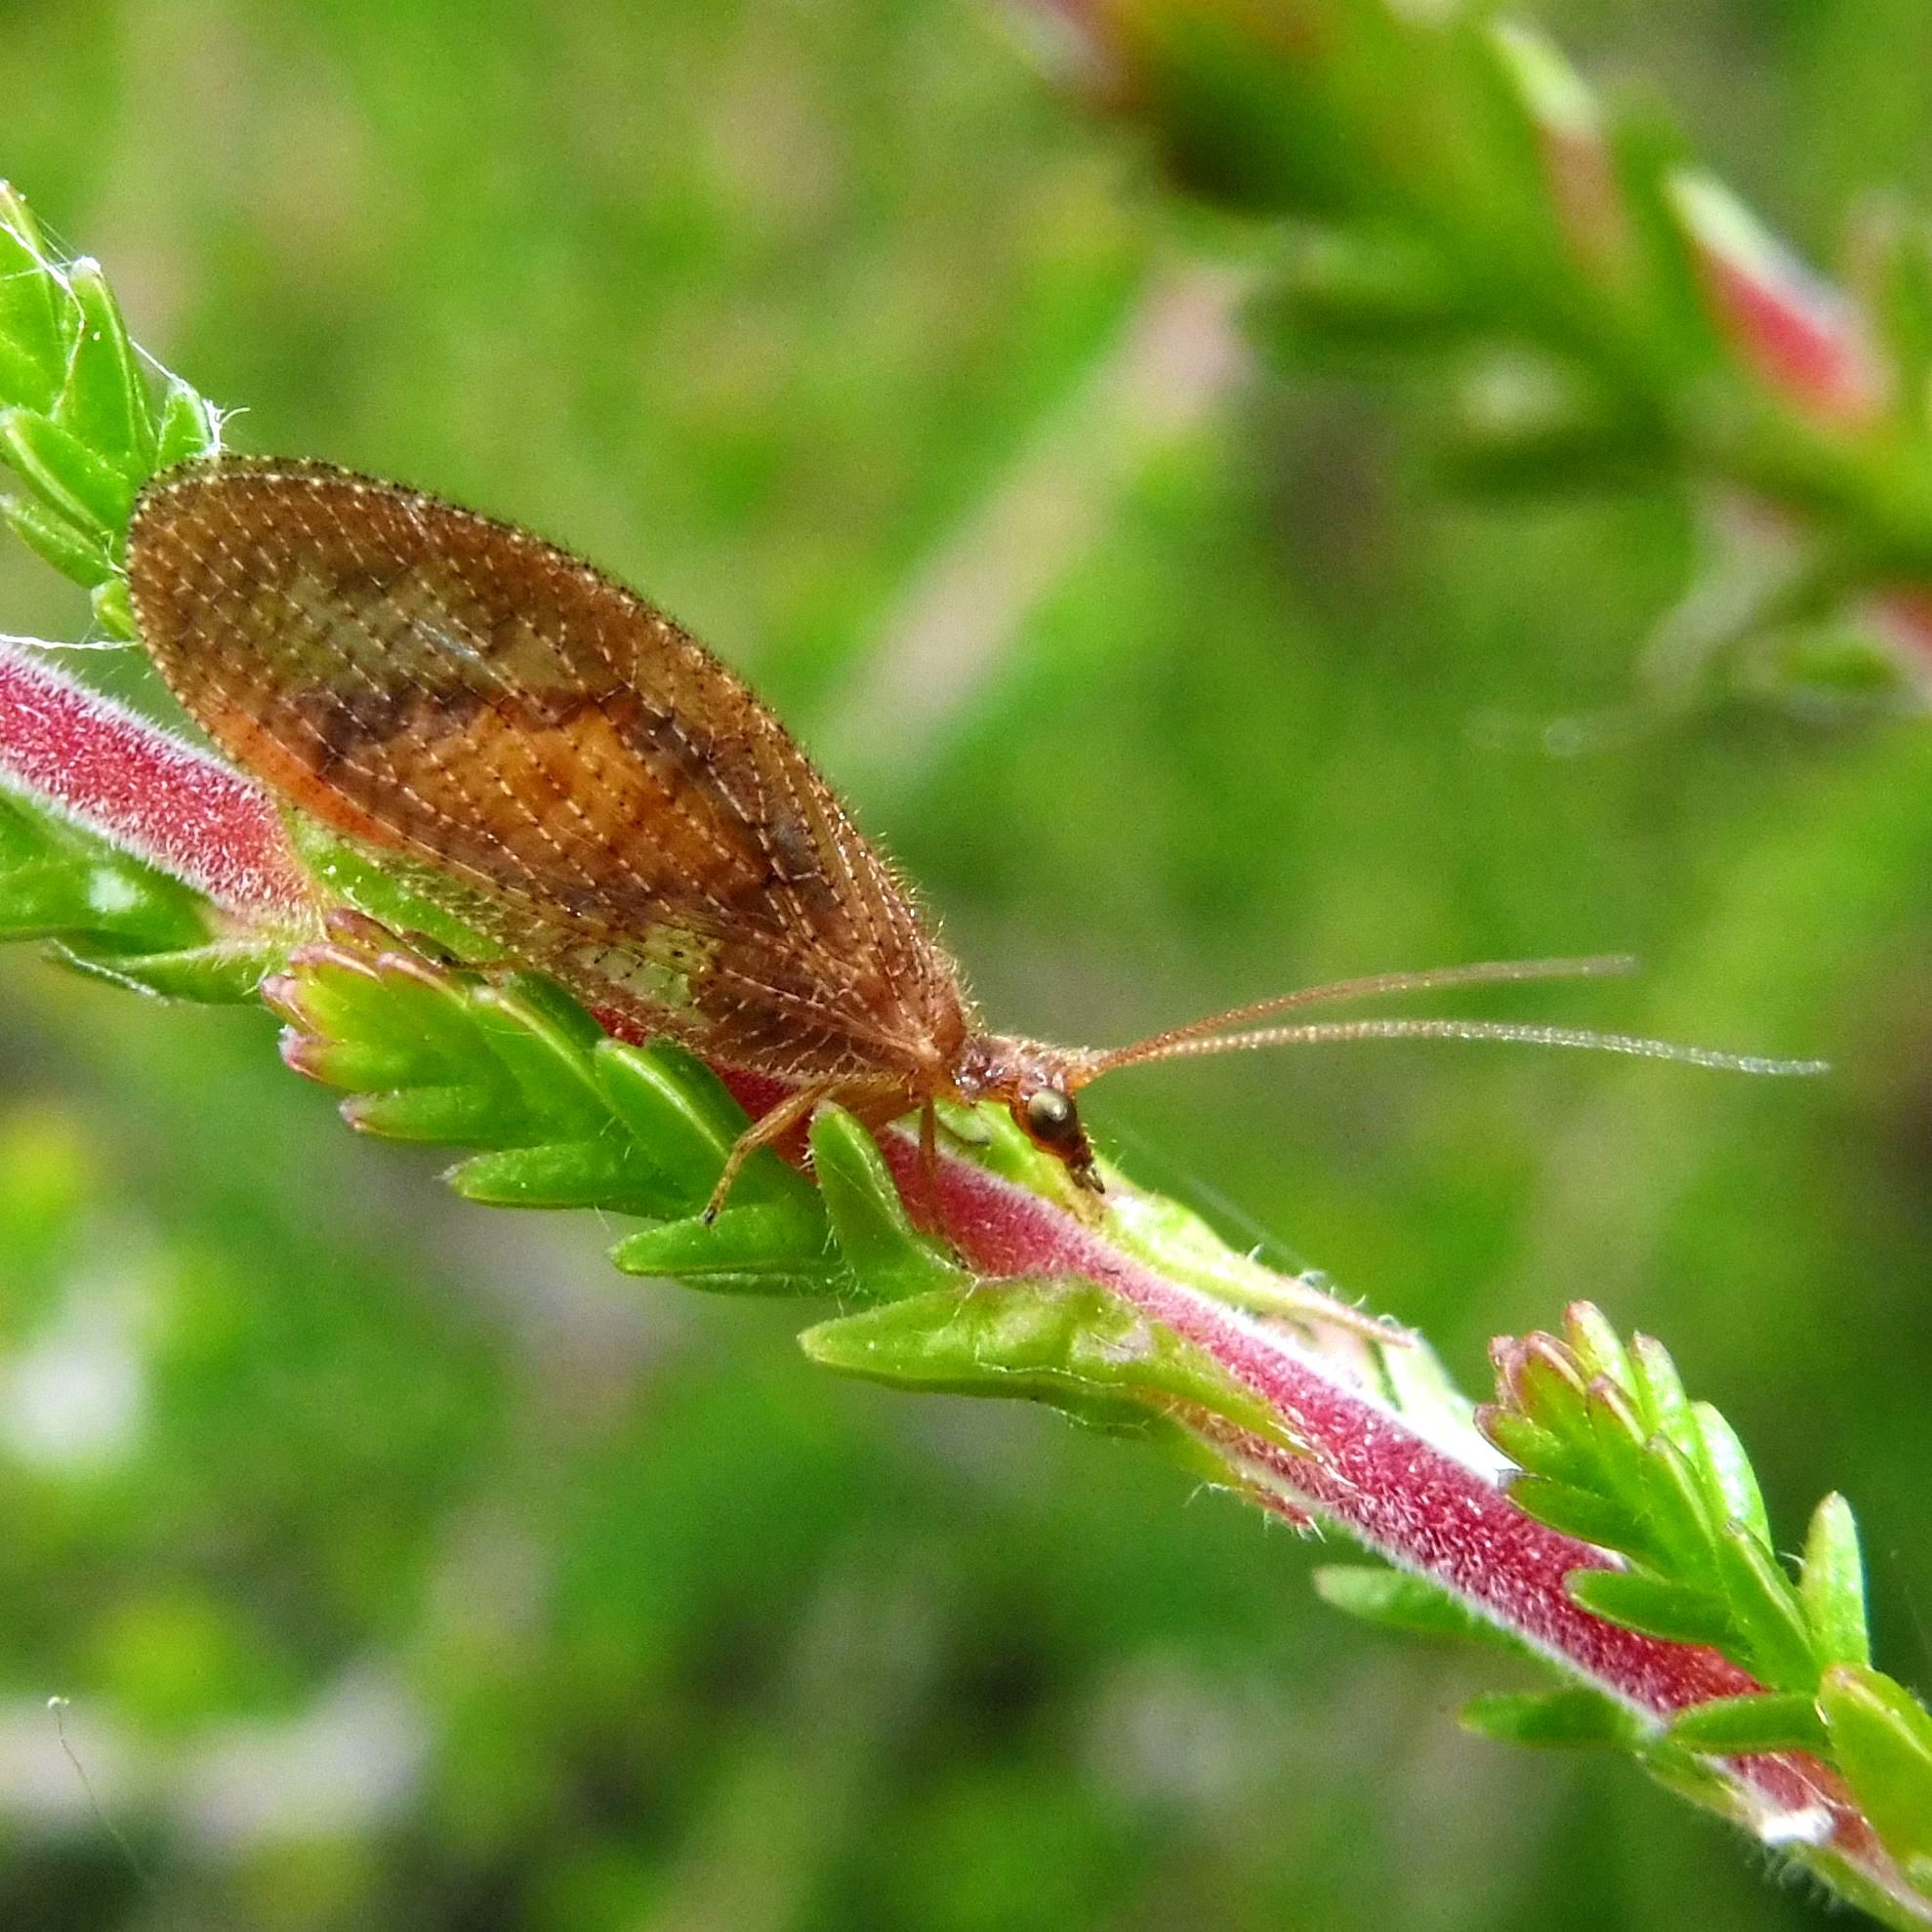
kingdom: Animalia
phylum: Arthropoda
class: Insecta
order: Neuroptera
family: Hemerobiidae
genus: Hemerobius
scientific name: Hemerobius stigma
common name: Brown pine lacewing
